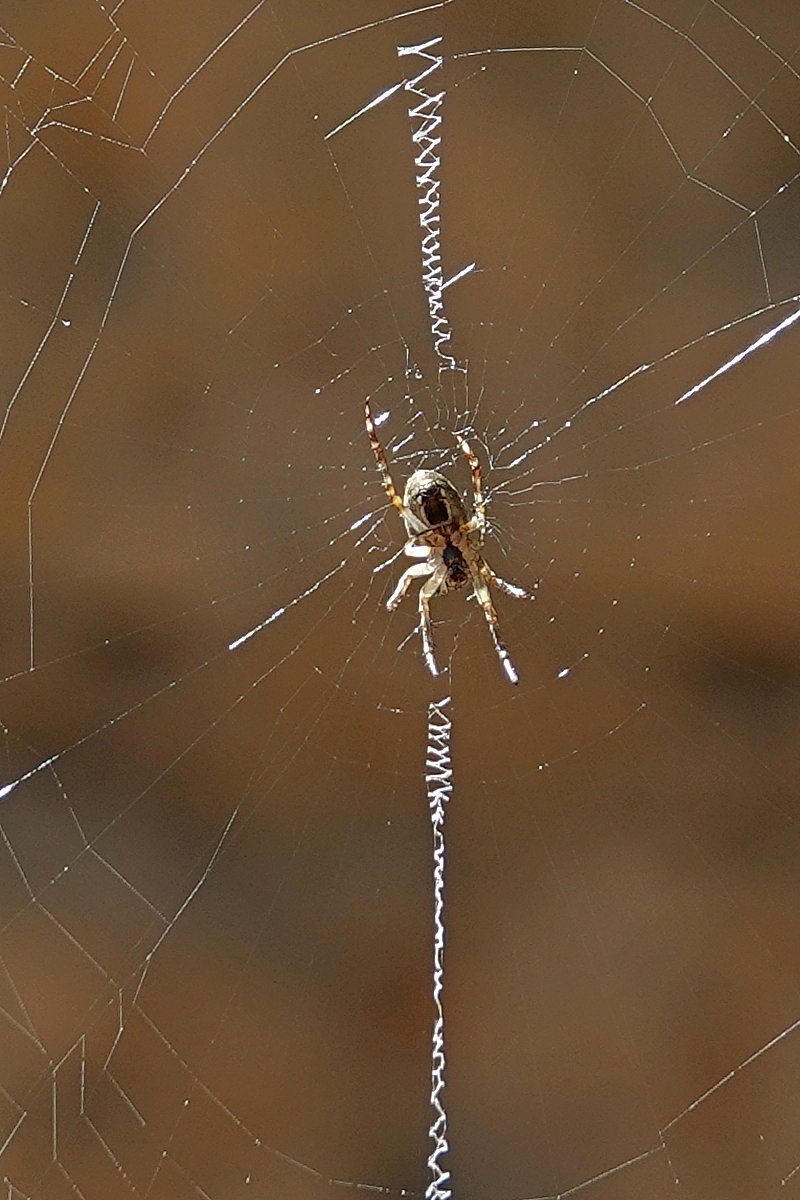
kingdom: Animalia
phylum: Arthropoda
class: Arachnida
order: Araneae
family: Araneidae
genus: Plebs
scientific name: Plebs eburnus
